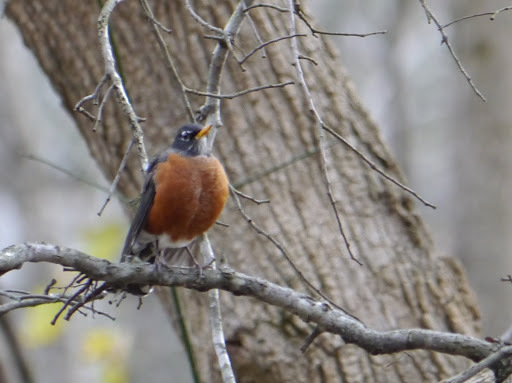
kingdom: Animalia
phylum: Chordata
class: Aves
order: Passeriformes
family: Turdidae
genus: Turdus
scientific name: Turdus migratorius
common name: American robin
